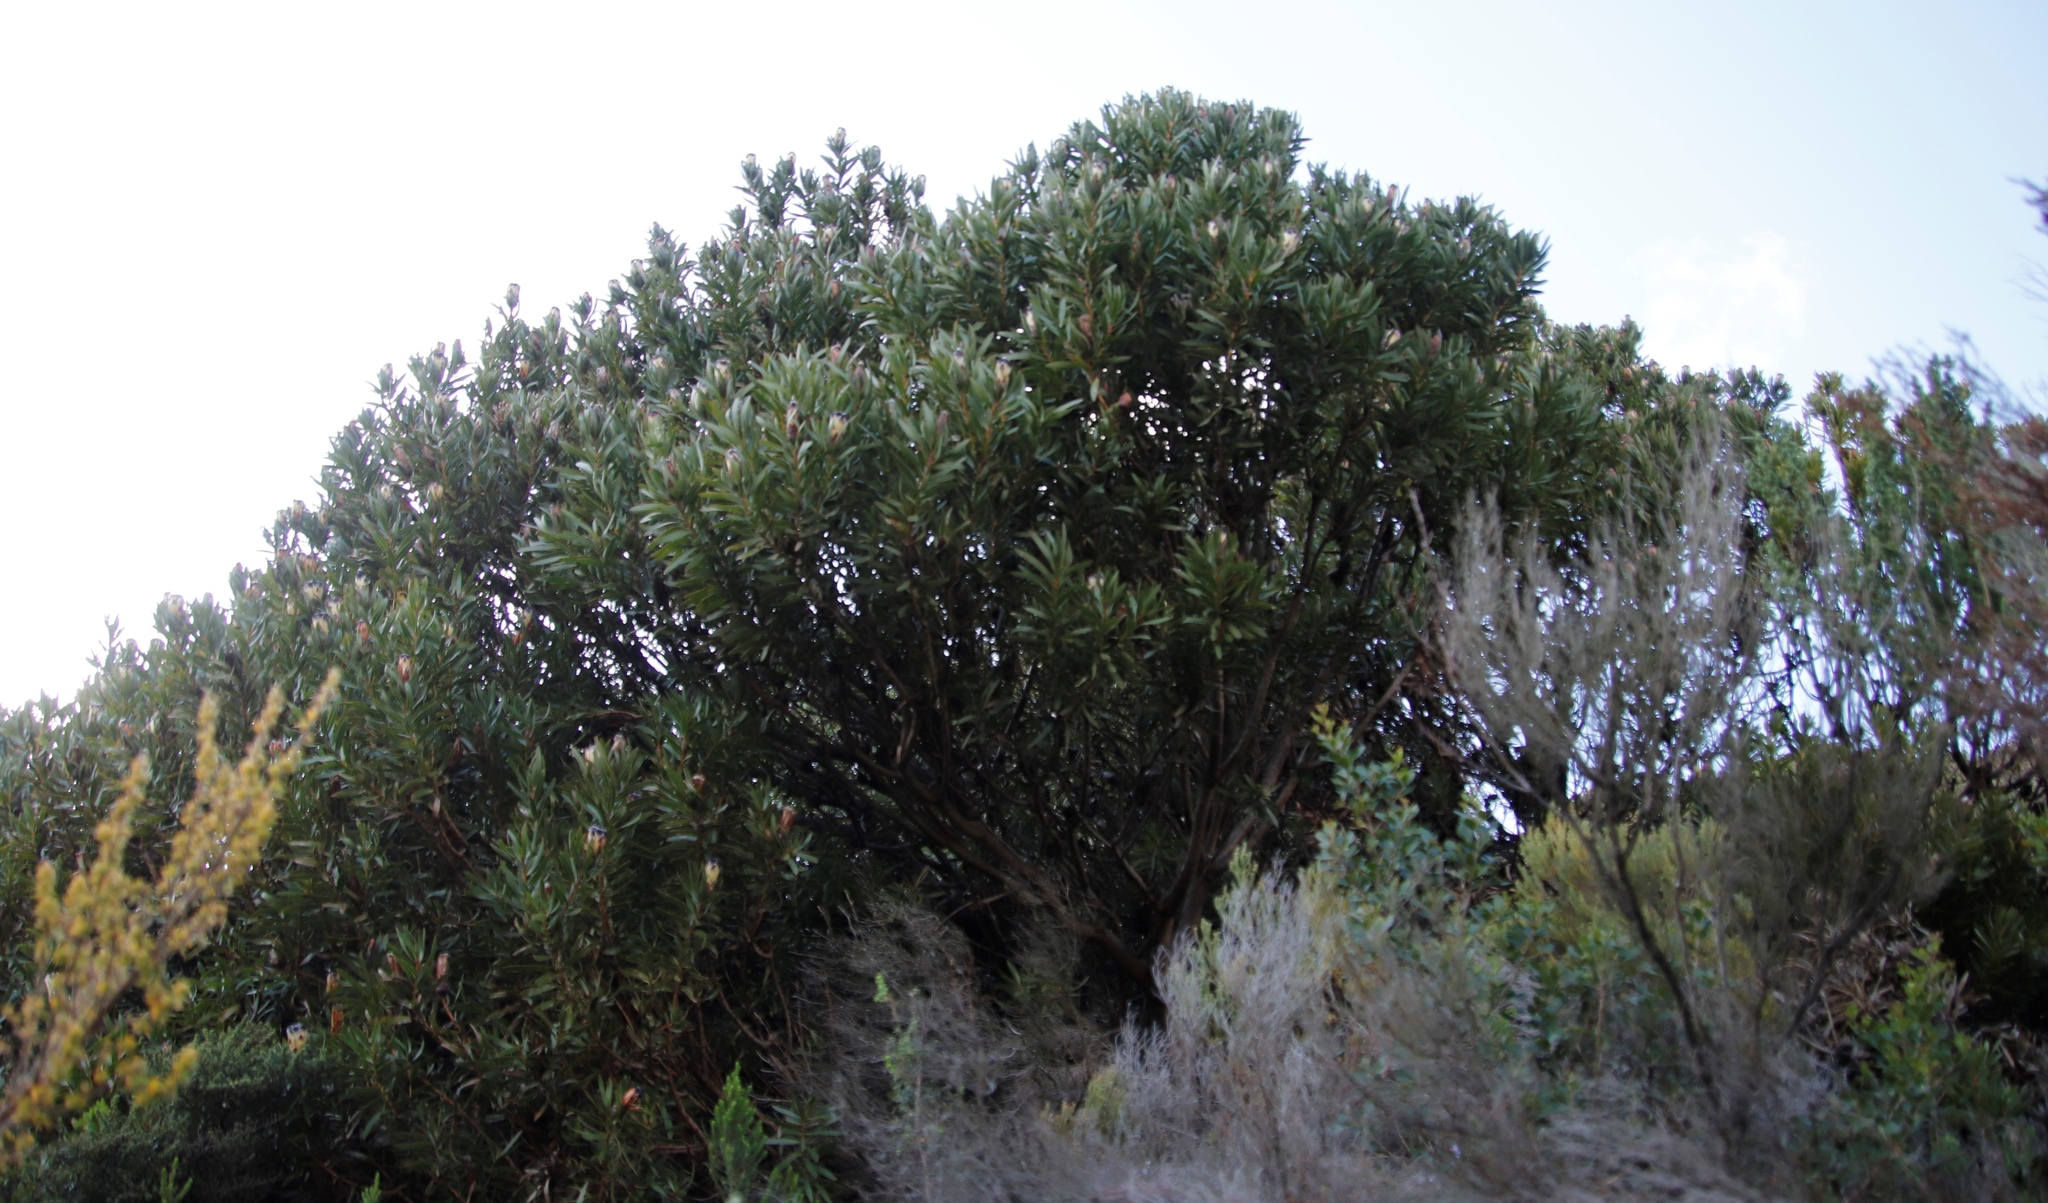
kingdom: Plantae
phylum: Tracheophyta
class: Magnoliopsida
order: Proteales
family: Proteaceae
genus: Protea
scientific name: Protea lepidocarpodendron
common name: Black-bearded protea
